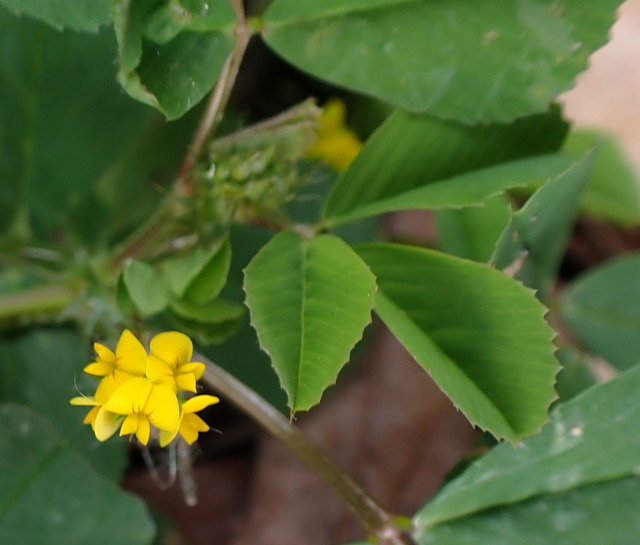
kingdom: Plantae
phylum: Tracheophyta
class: Magnoliopsida
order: Fabales
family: Fabaceae
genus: Medicago
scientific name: Medicago polymorpha
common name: Burclover
